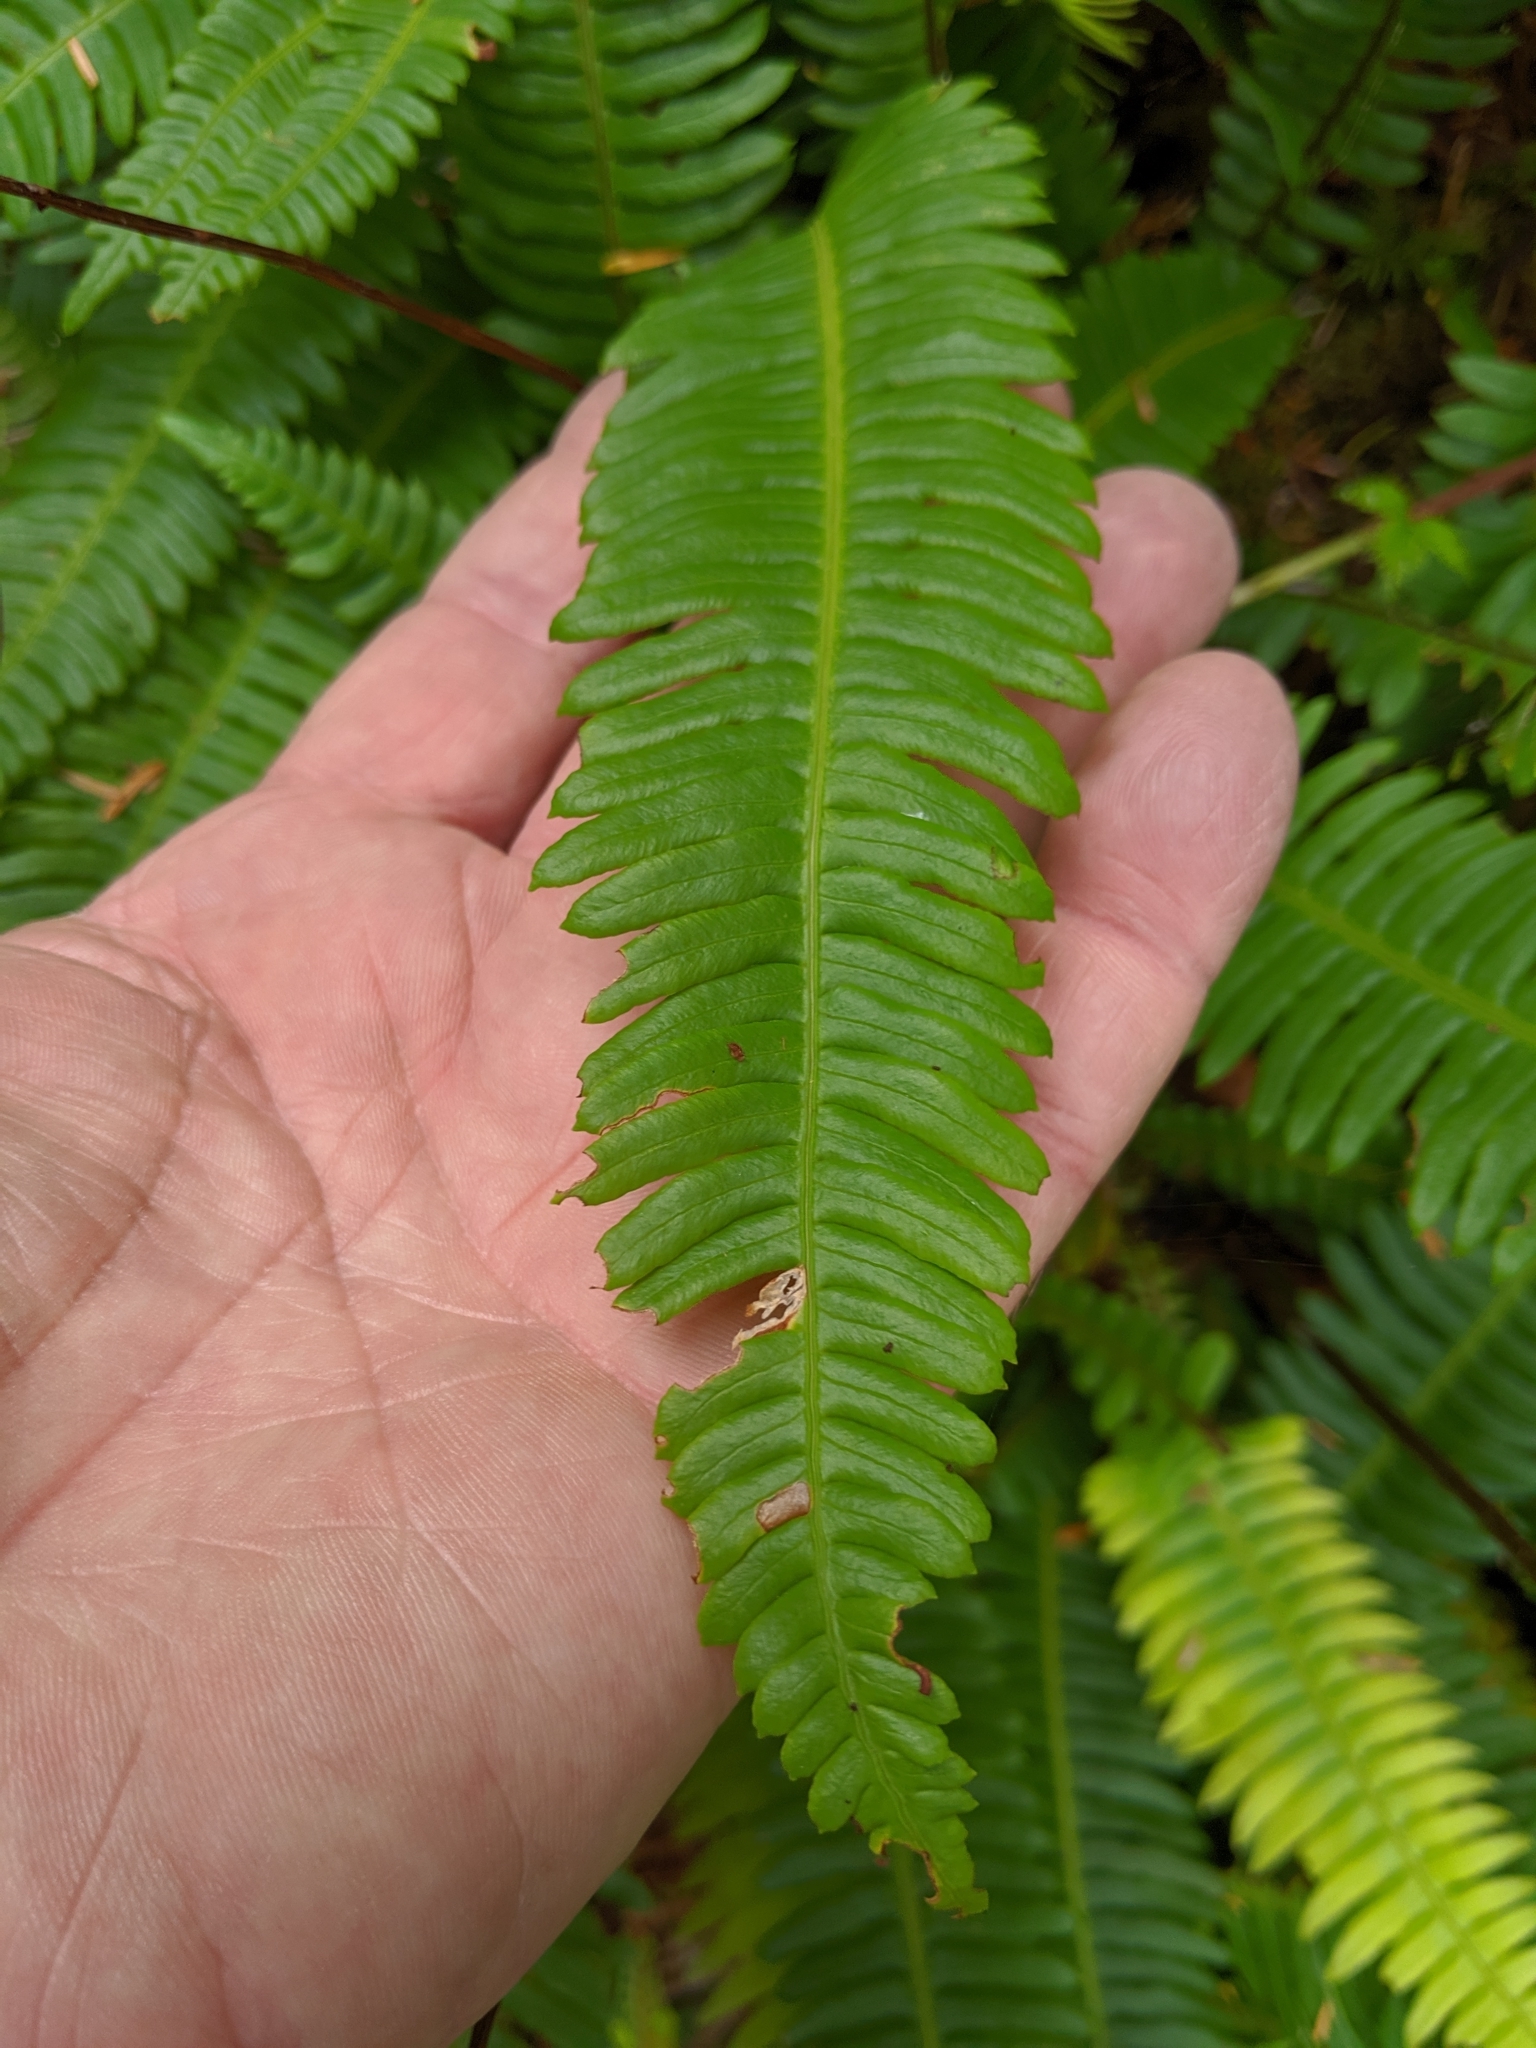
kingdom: Plantae
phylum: Tracheophyta
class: Polypodiopsida
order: Polypodiales
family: Blechnaceae
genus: Struthiopteris
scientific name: Struthiopteris spicant
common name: Deer fern
